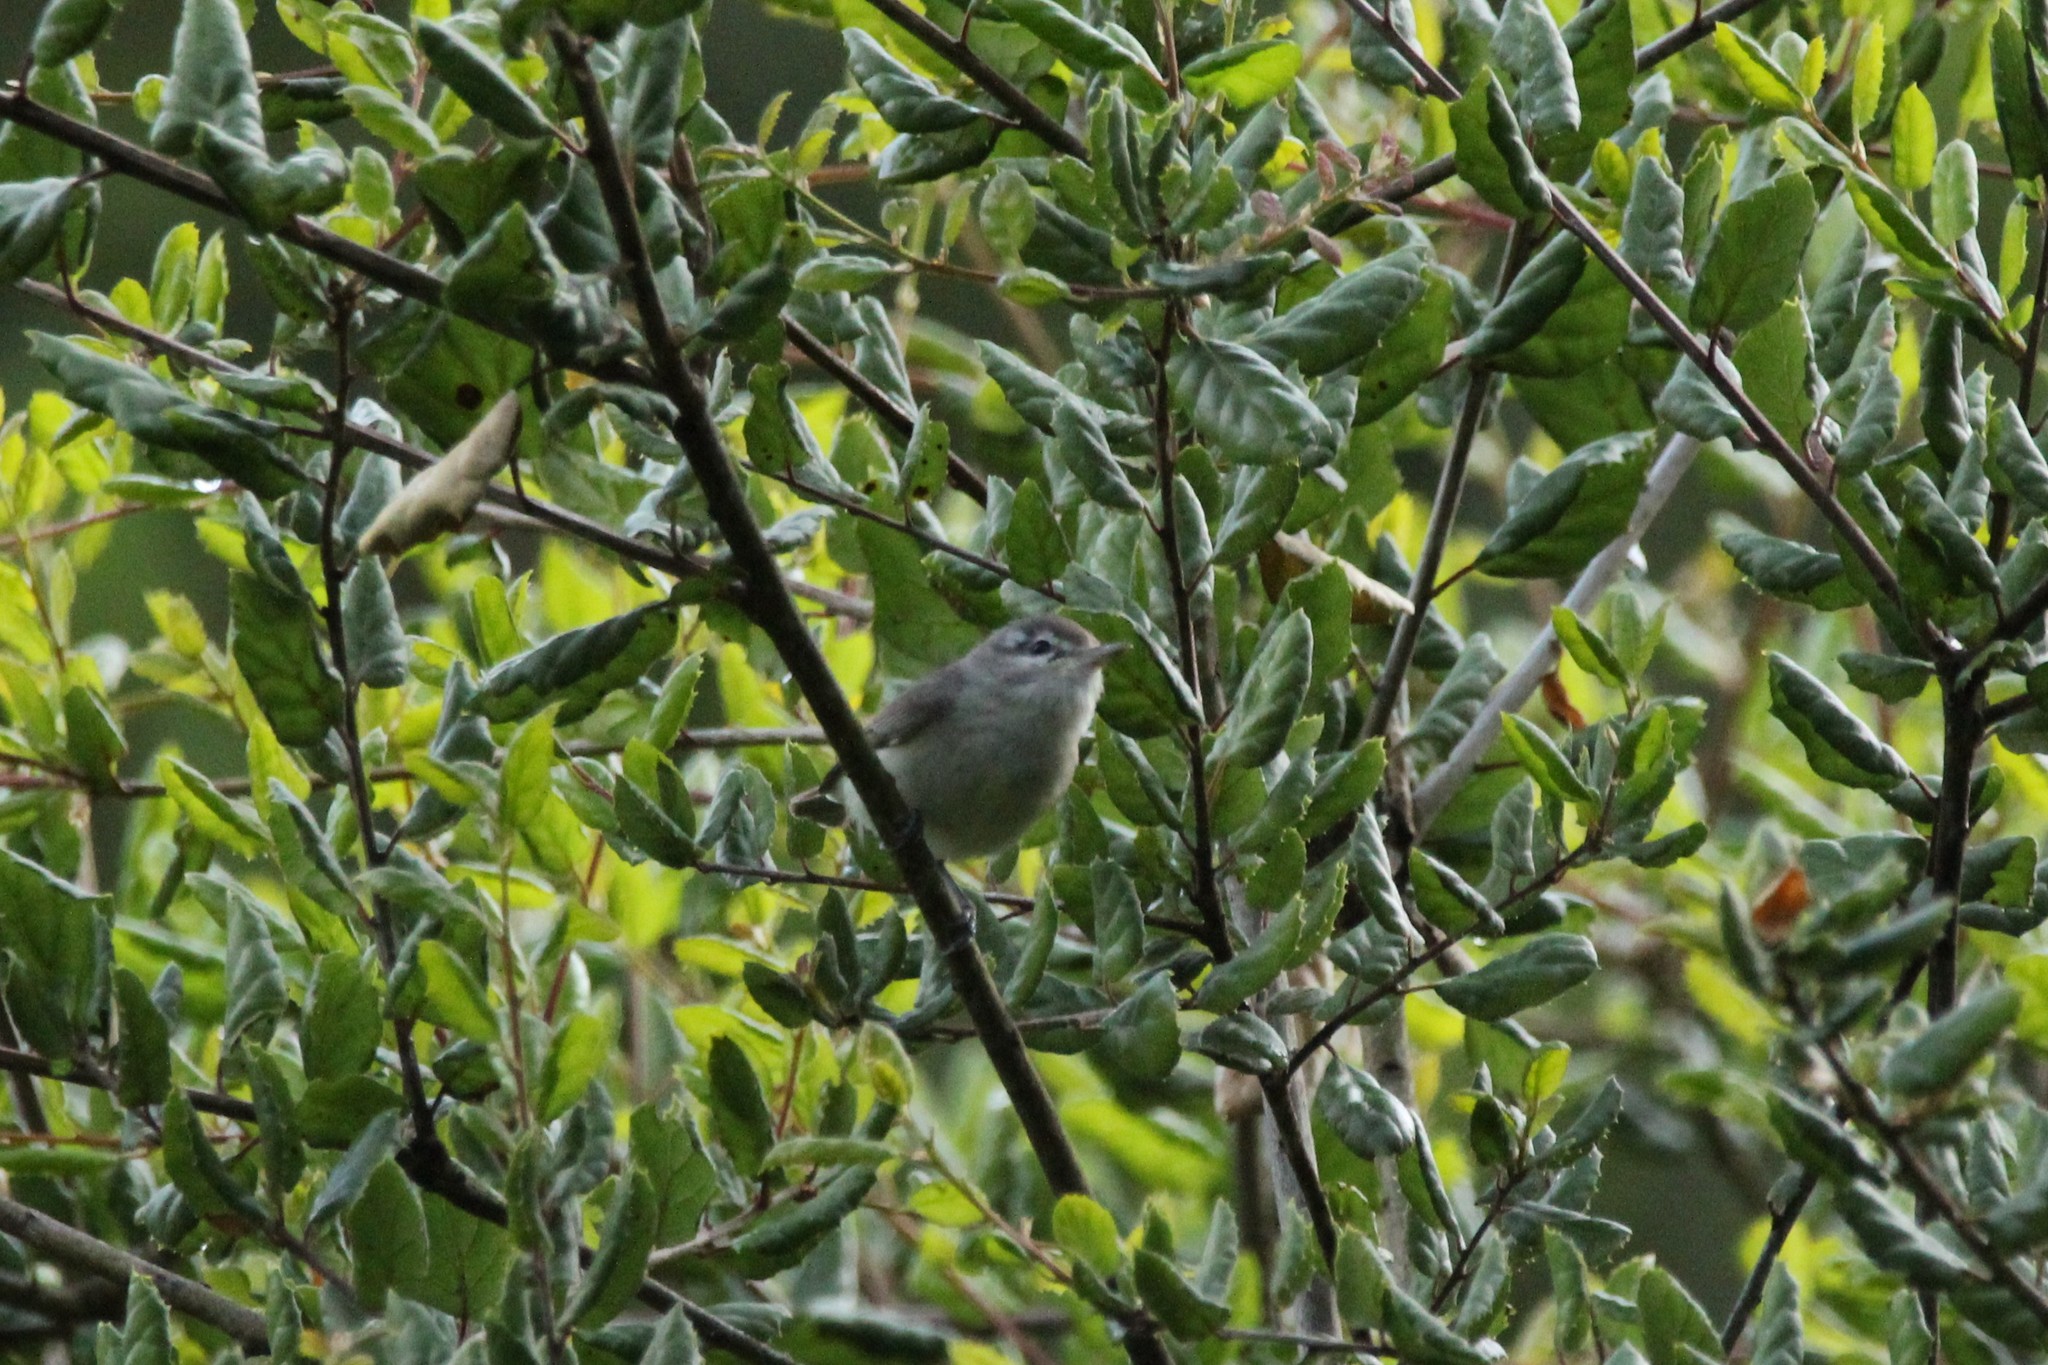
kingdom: Animalia
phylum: Chordata
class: Aves
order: Passeriformes
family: Vireonidae
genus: Vireo
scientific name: Vireo gilvus
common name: Warbling vireo
